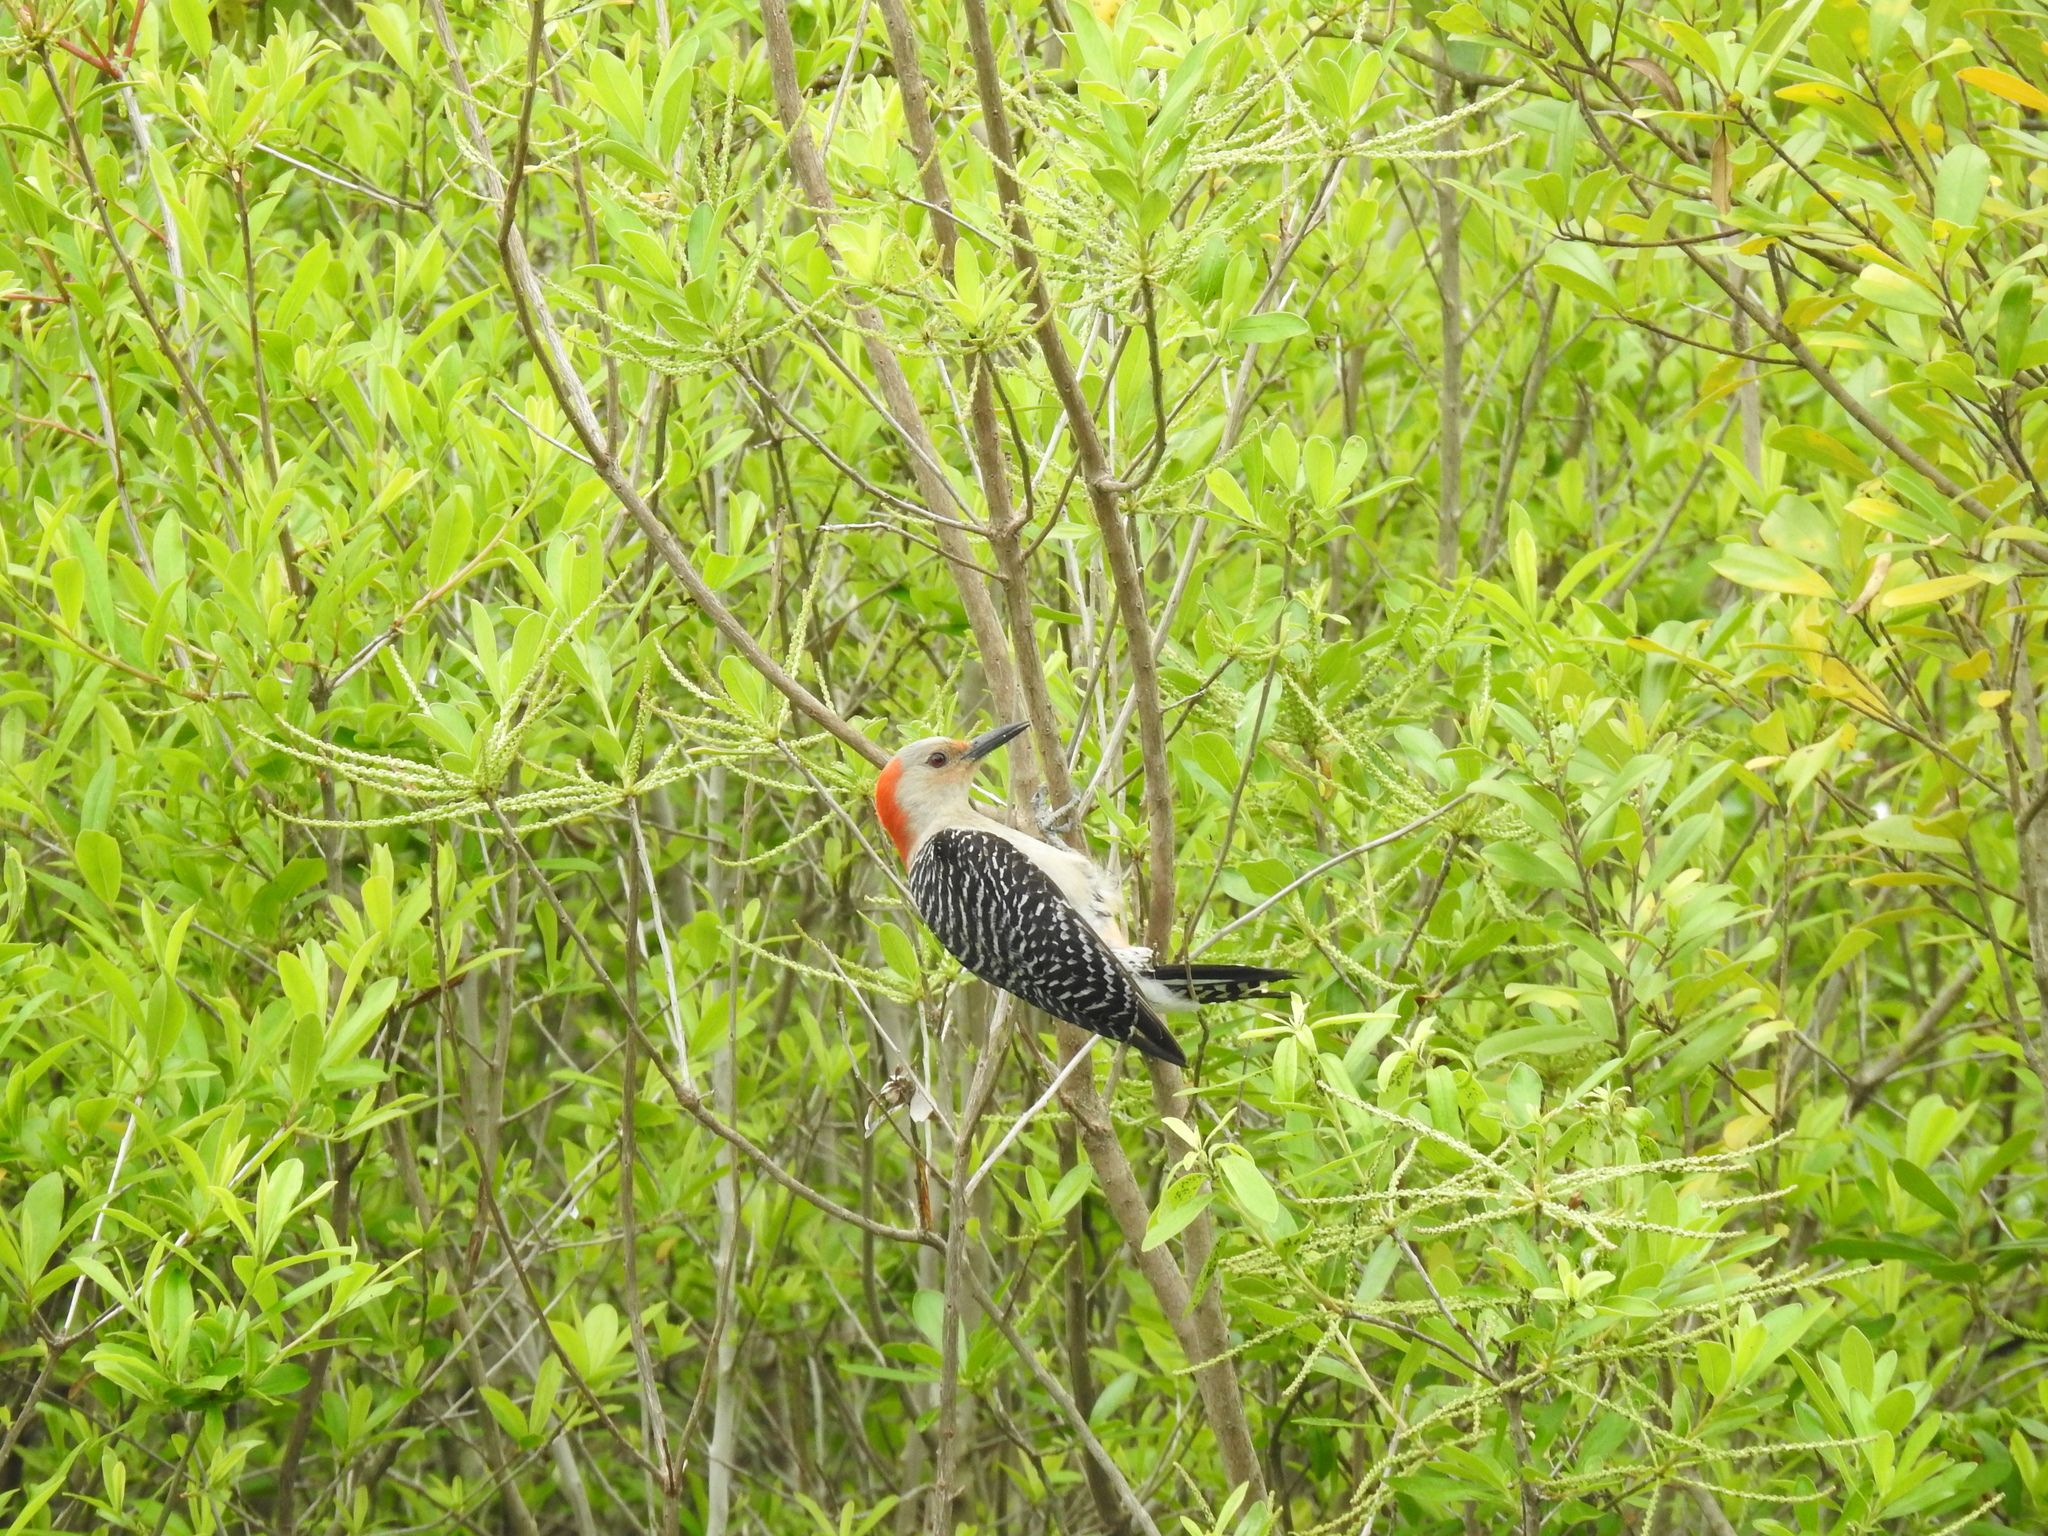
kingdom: Animalia
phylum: Chordata
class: Aves
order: Piciformes
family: Picidae
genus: Melanerpes
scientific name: Melanerpes carolinus
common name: Red-bellied woodpecker
